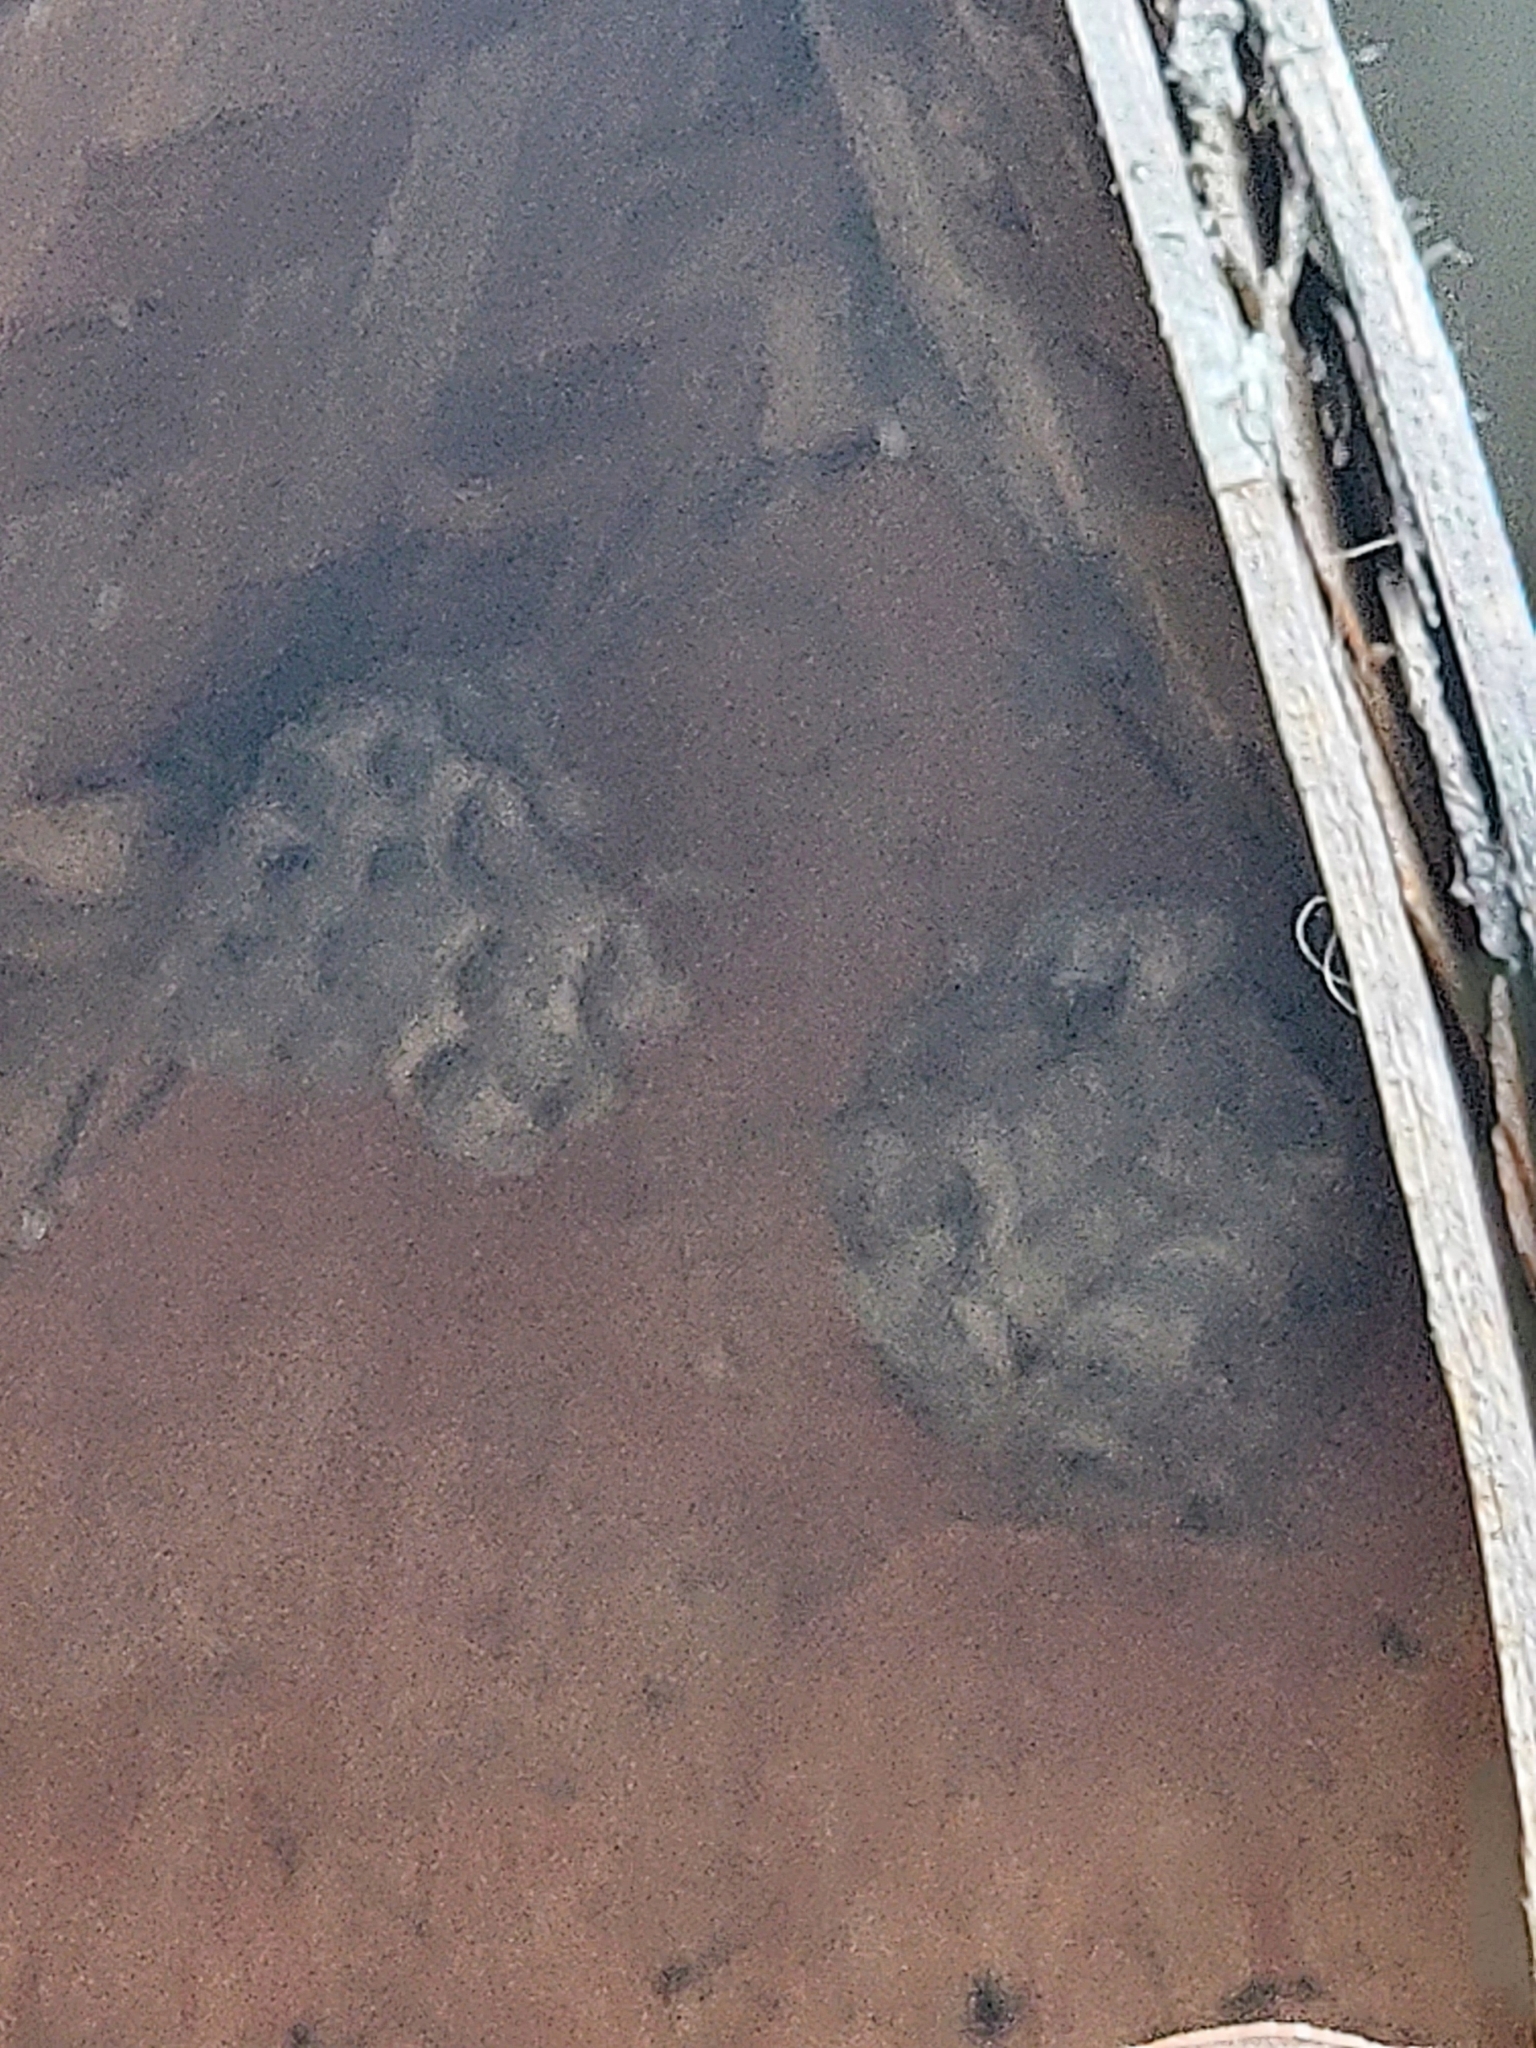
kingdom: Animalia
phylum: Arthropoda
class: Insecta
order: Hymenoptera
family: Eumenidae
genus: Polistes
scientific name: Polistes
